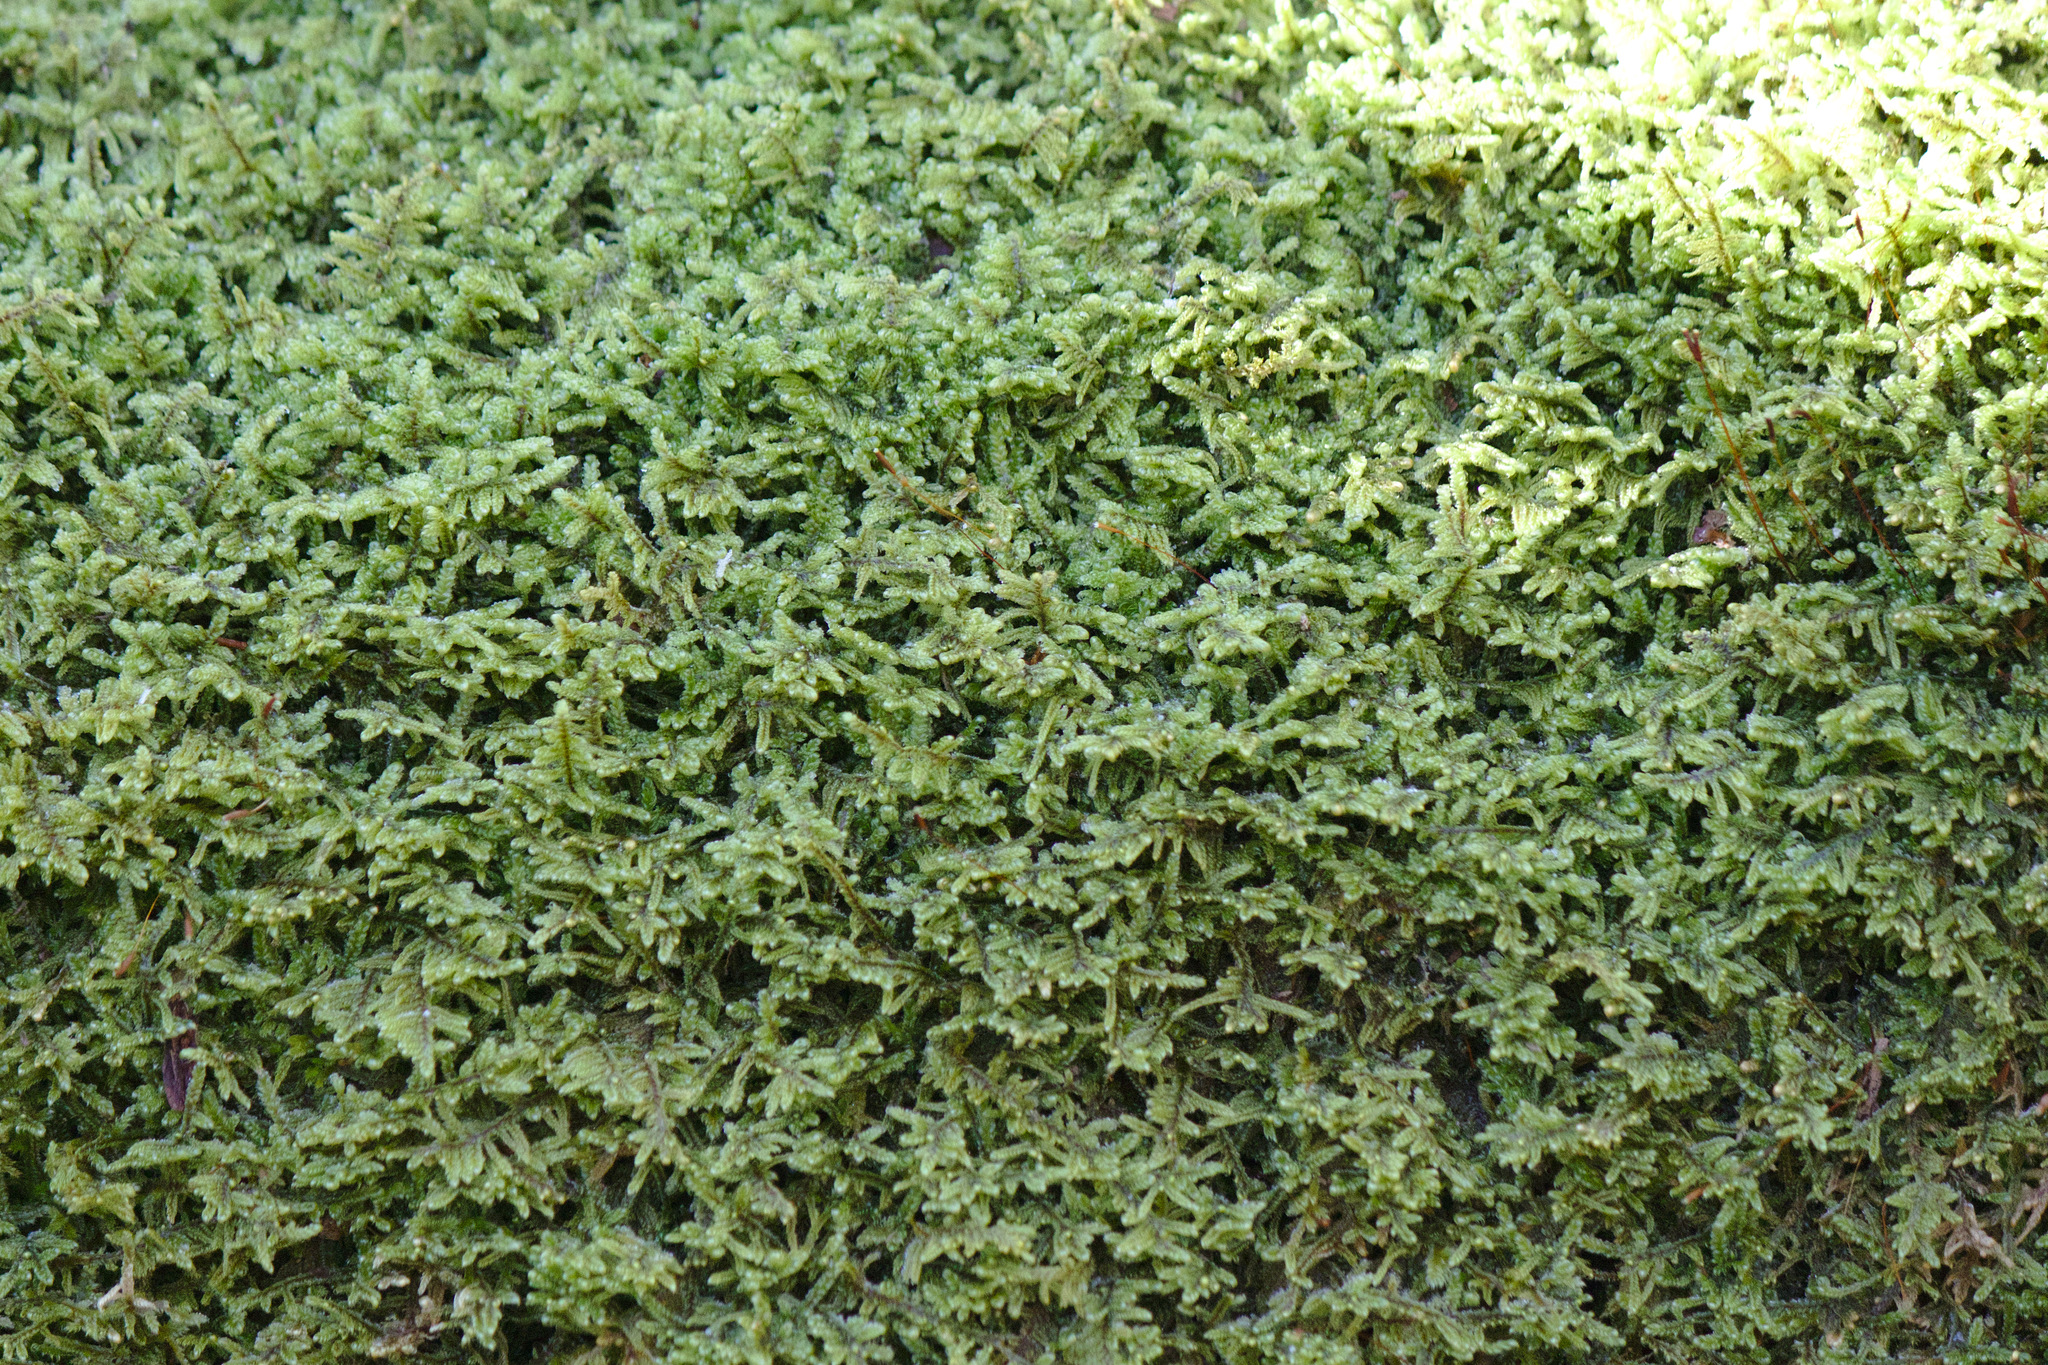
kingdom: Plantae
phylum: Bryophyta
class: Bryopsida
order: Hypnales
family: Callicladiaceae
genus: Callicladium
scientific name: Callicladium imponens
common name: Brocade moss
